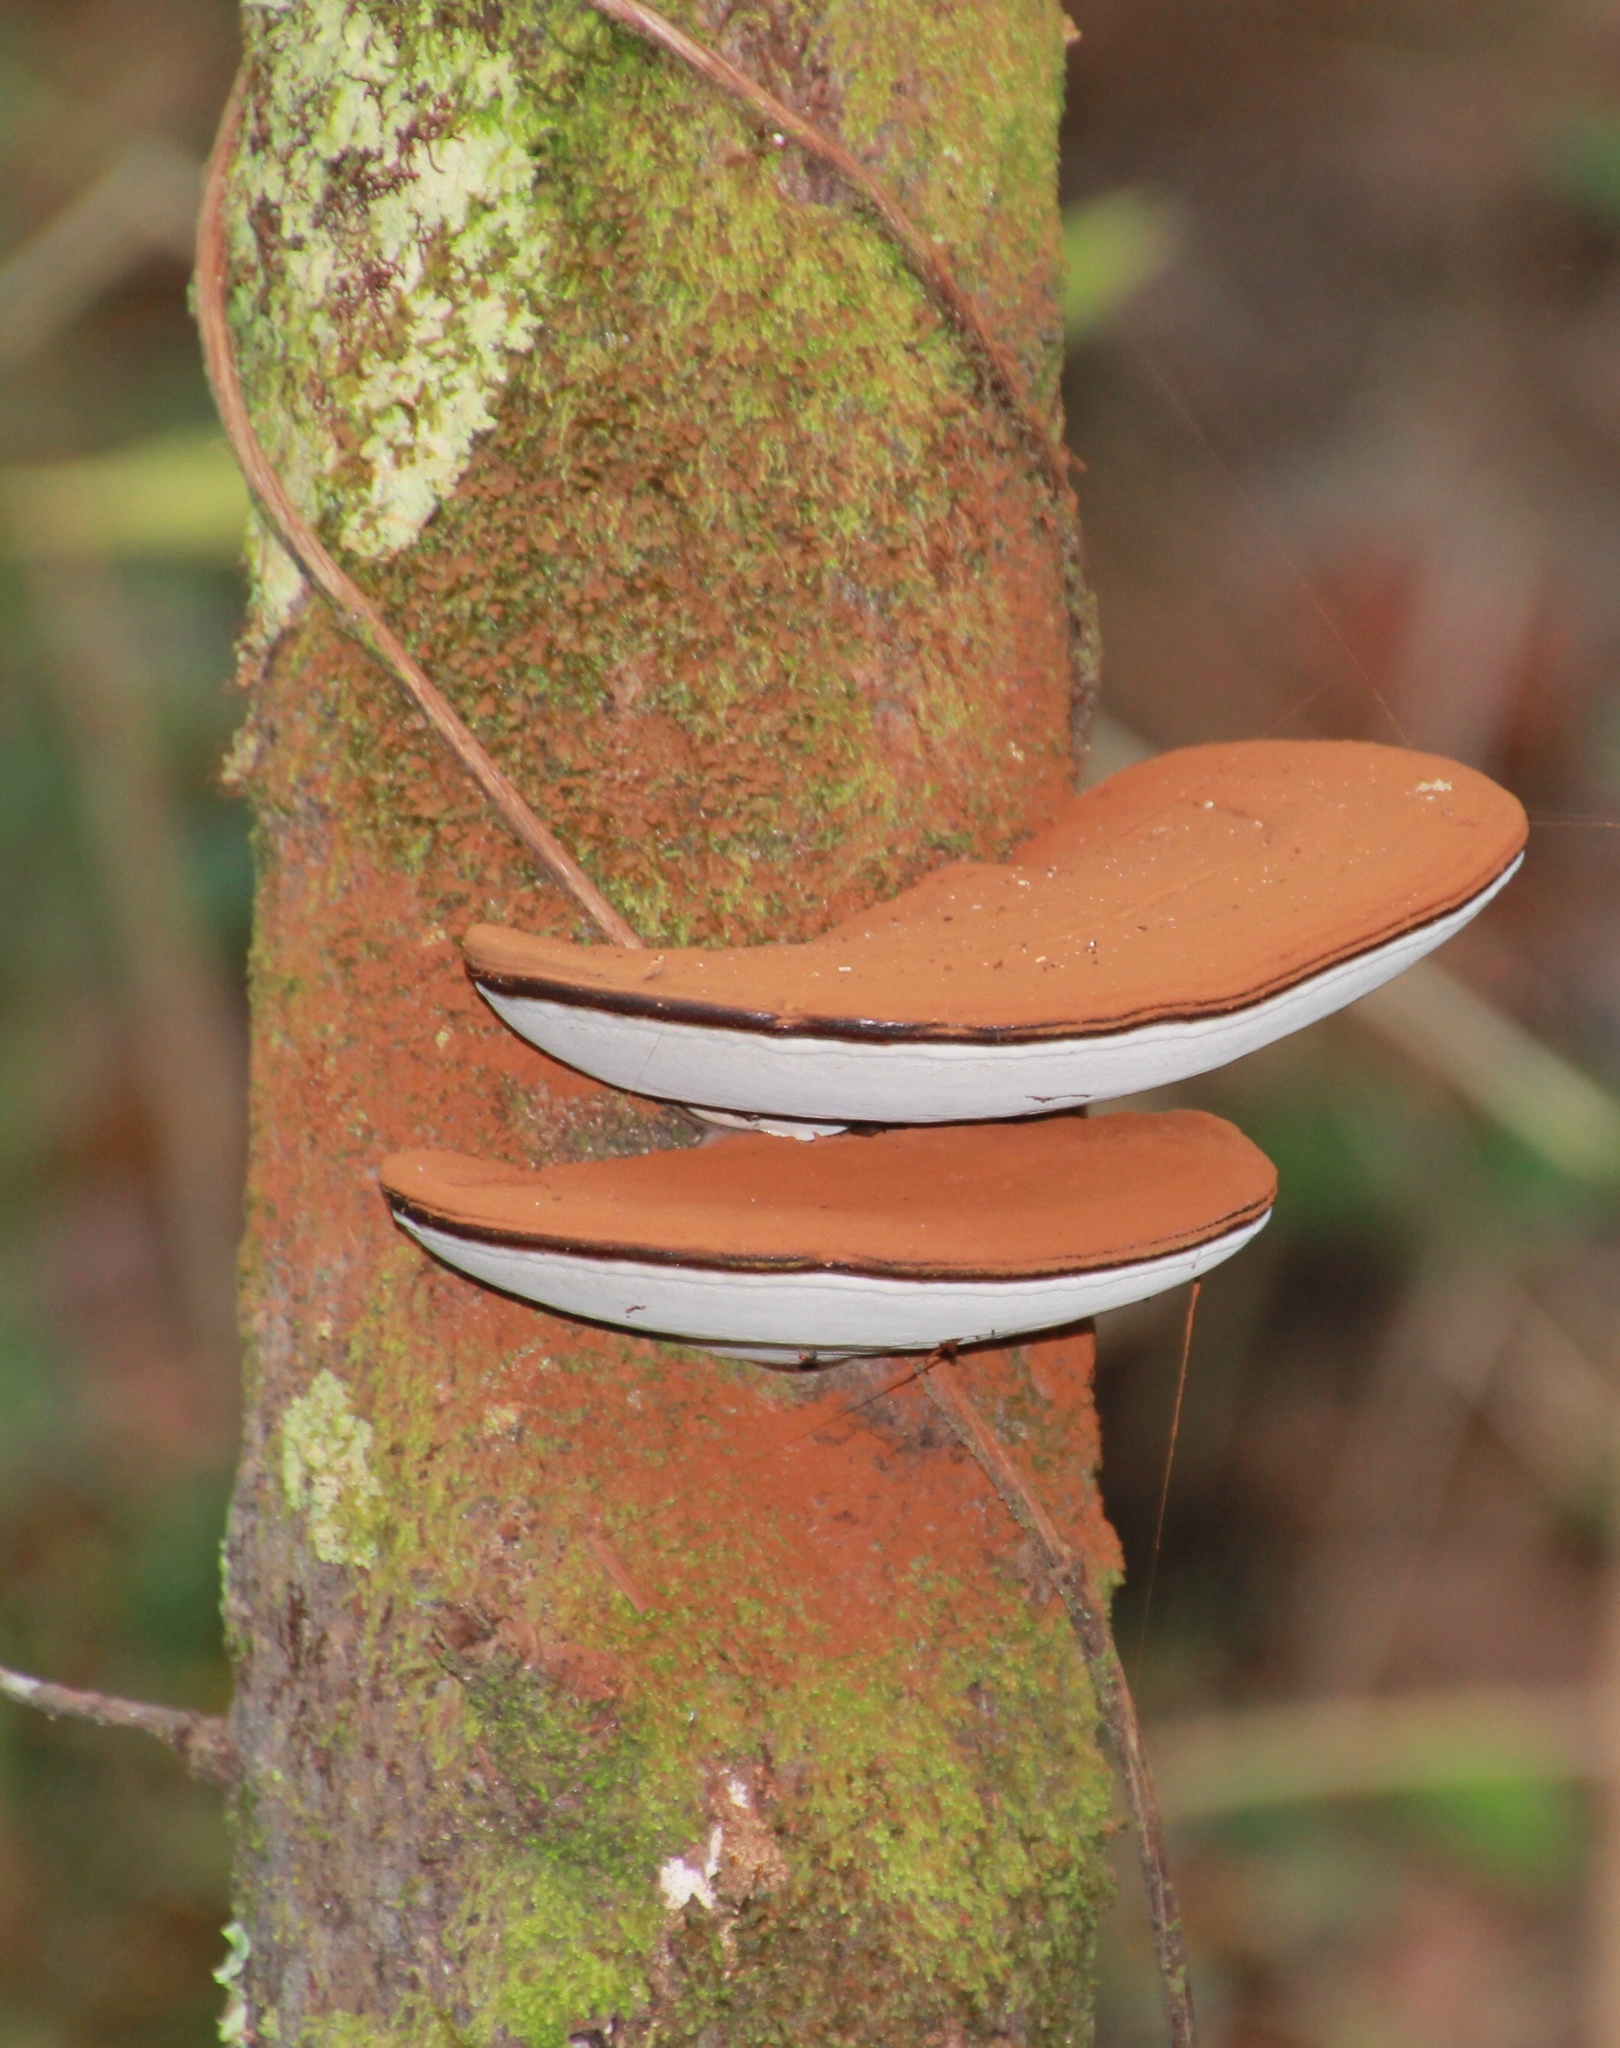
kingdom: Fungi
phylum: Basidiomycota
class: Agaricomycetes
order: Polyporales
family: Polyporaceae
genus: Ganoderma
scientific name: Ganoderma applanatum
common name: Artist's bracket
